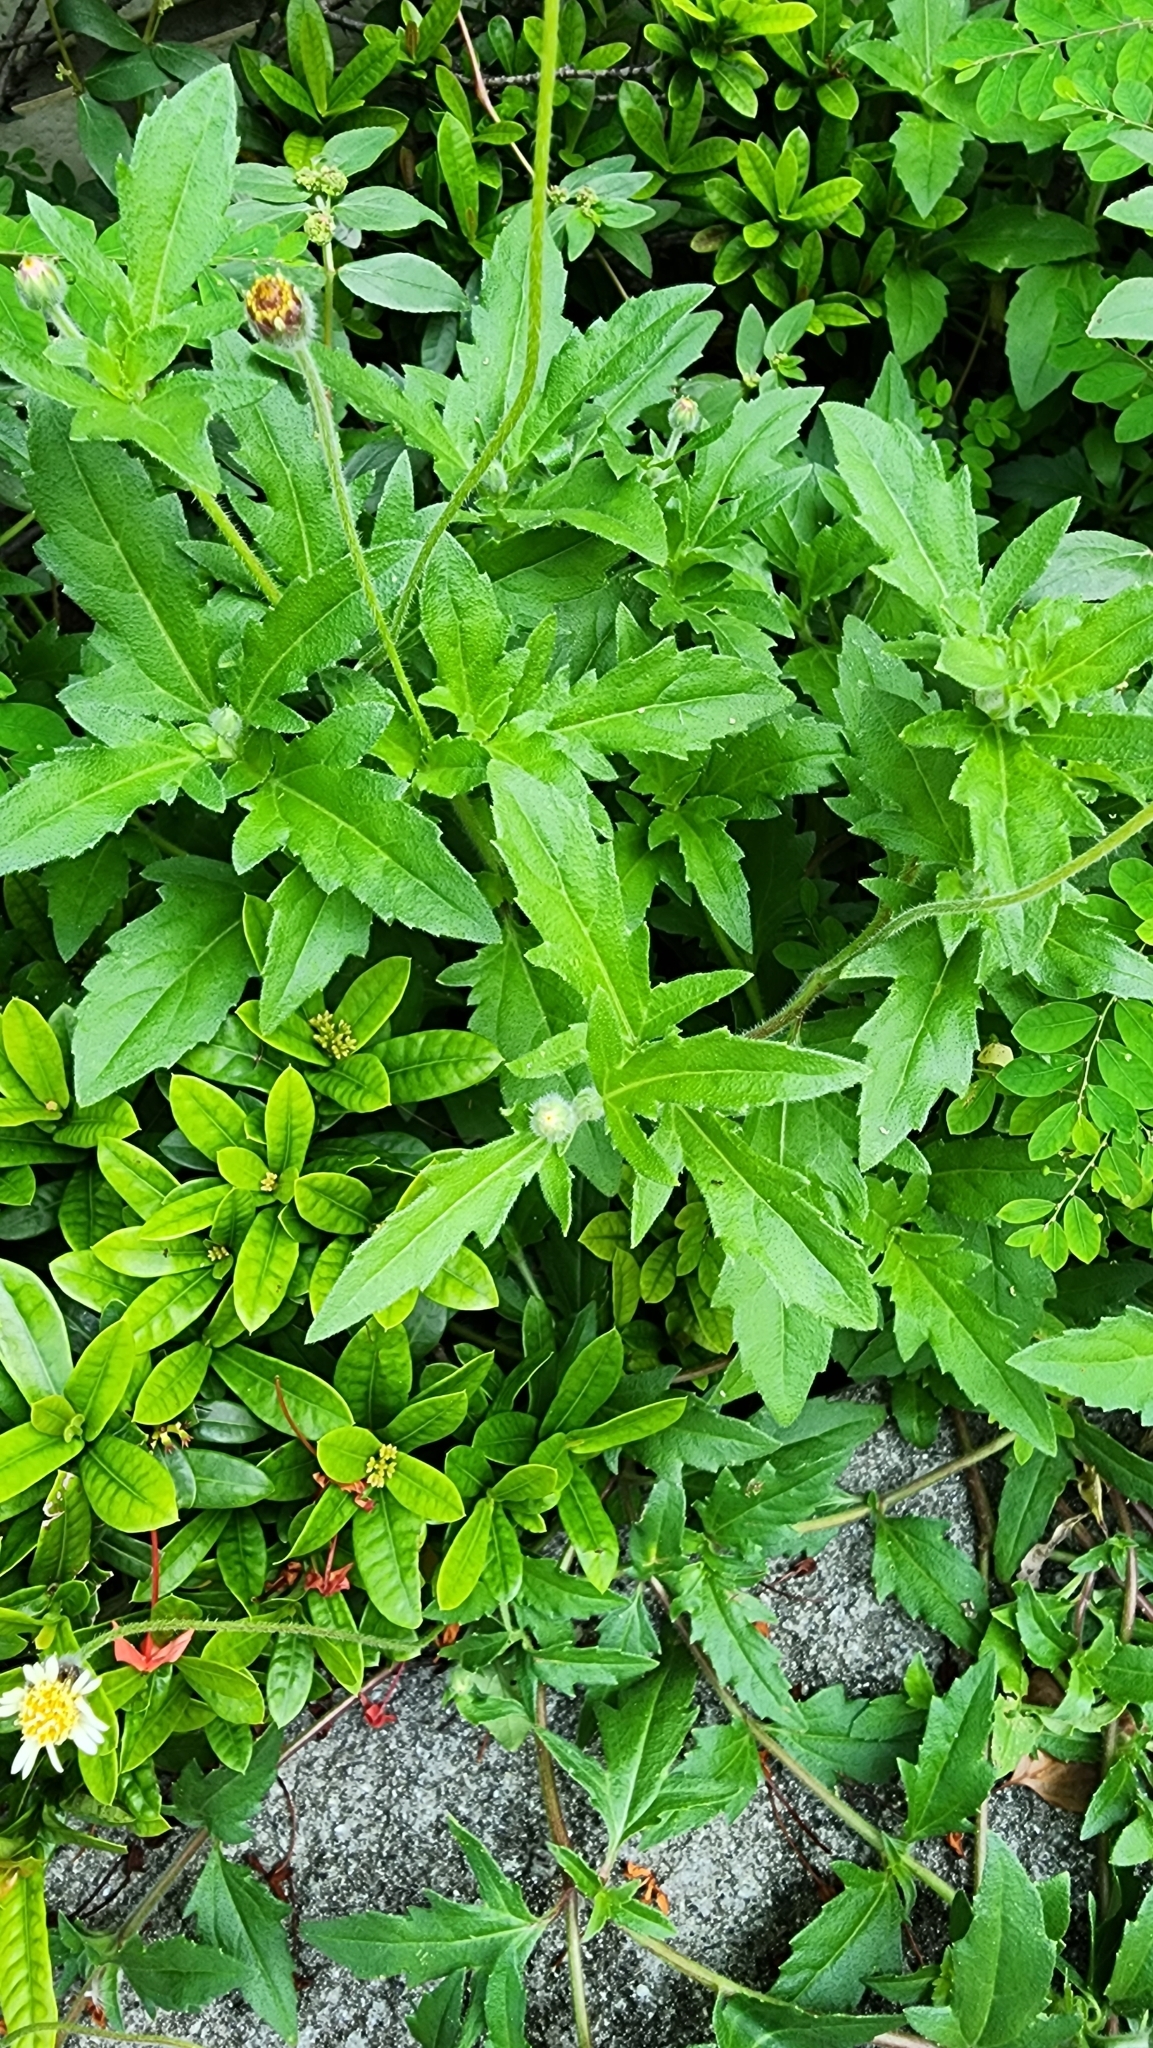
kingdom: Plantae
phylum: Tracheophyta
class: Magnoliopsida
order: Asterales
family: Asteraceae
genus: Tridax
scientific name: Tridax procumbens
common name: Coatbuttons
